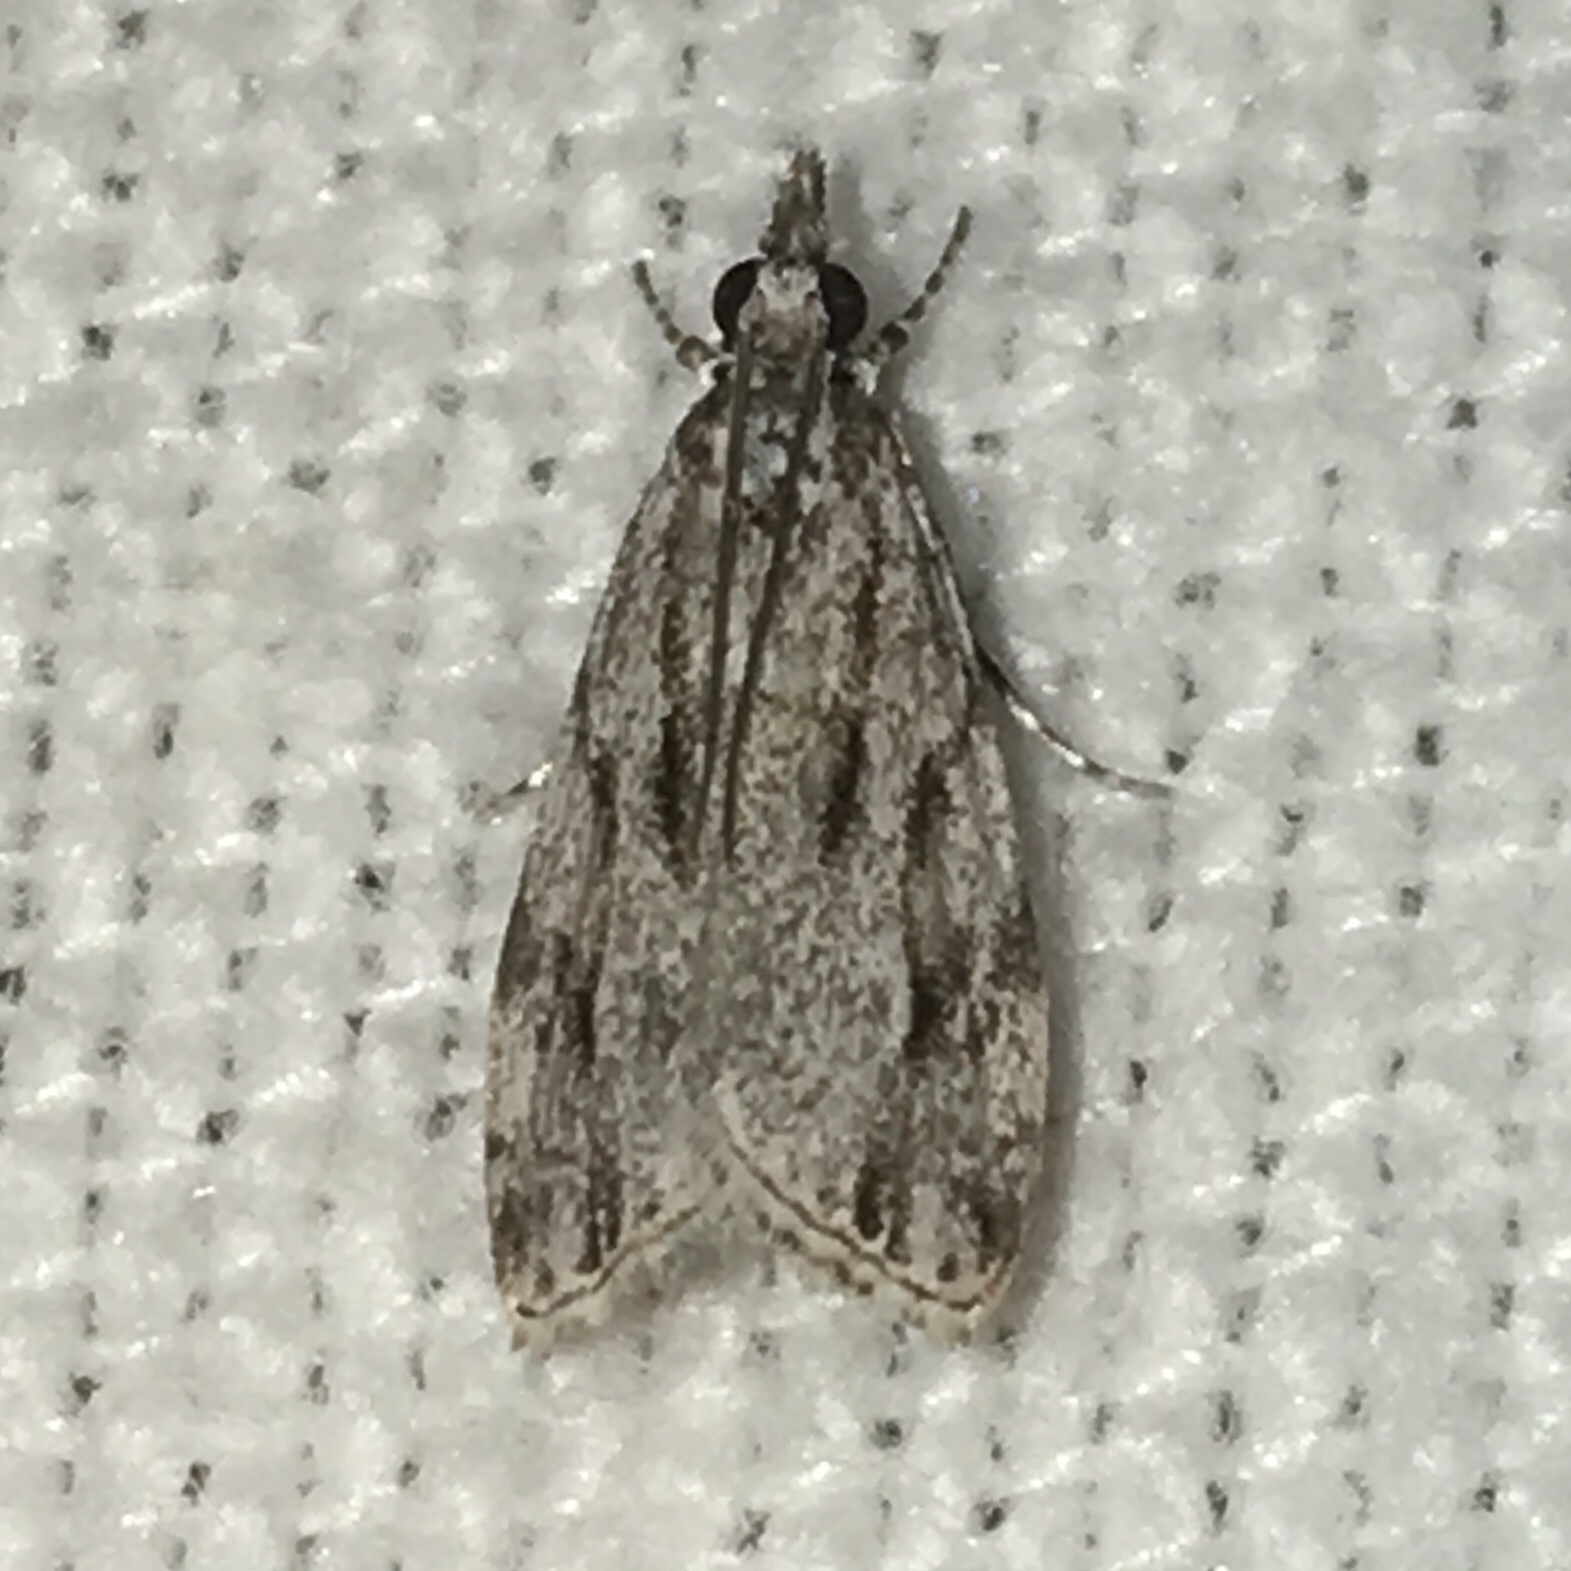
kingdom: Animalia
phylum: Arthropoda
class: Insecta
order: Lepidoptera
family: Crambidae
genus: Eudonia
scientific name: Eudonia strigalis
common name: Striped eudonia moth
